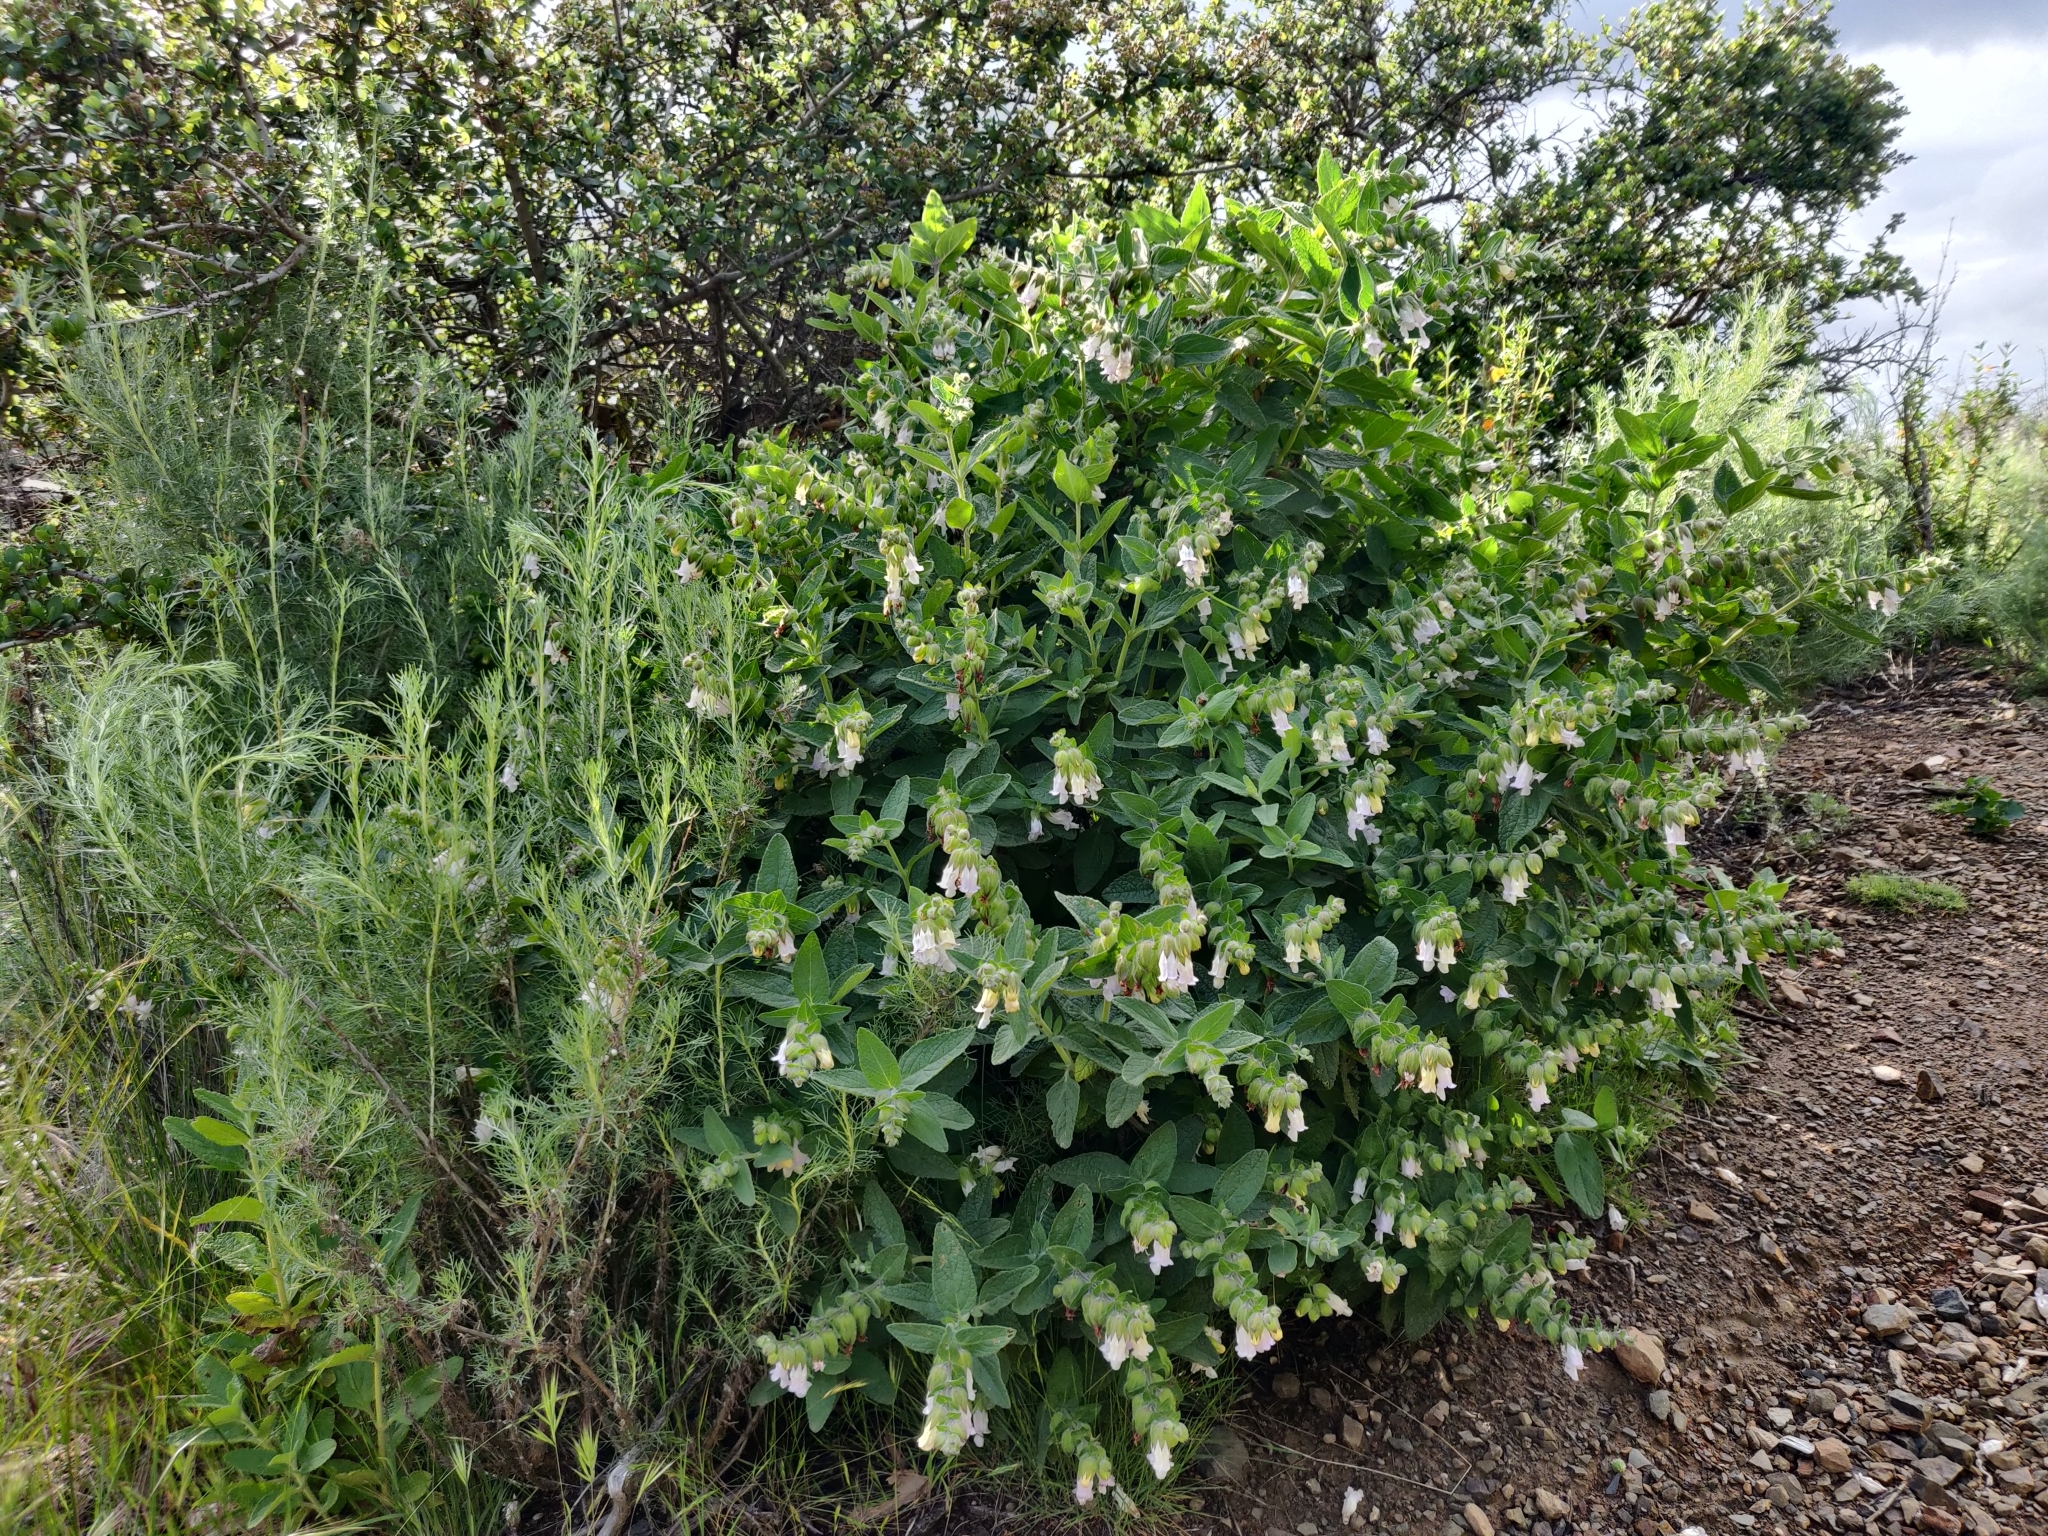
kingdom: Plantae
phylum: Tracheophyta
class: Magnoliopsida
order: Lamiales
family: Lamiaceae
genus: Lepechinia
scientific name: Lepechinia calycina
